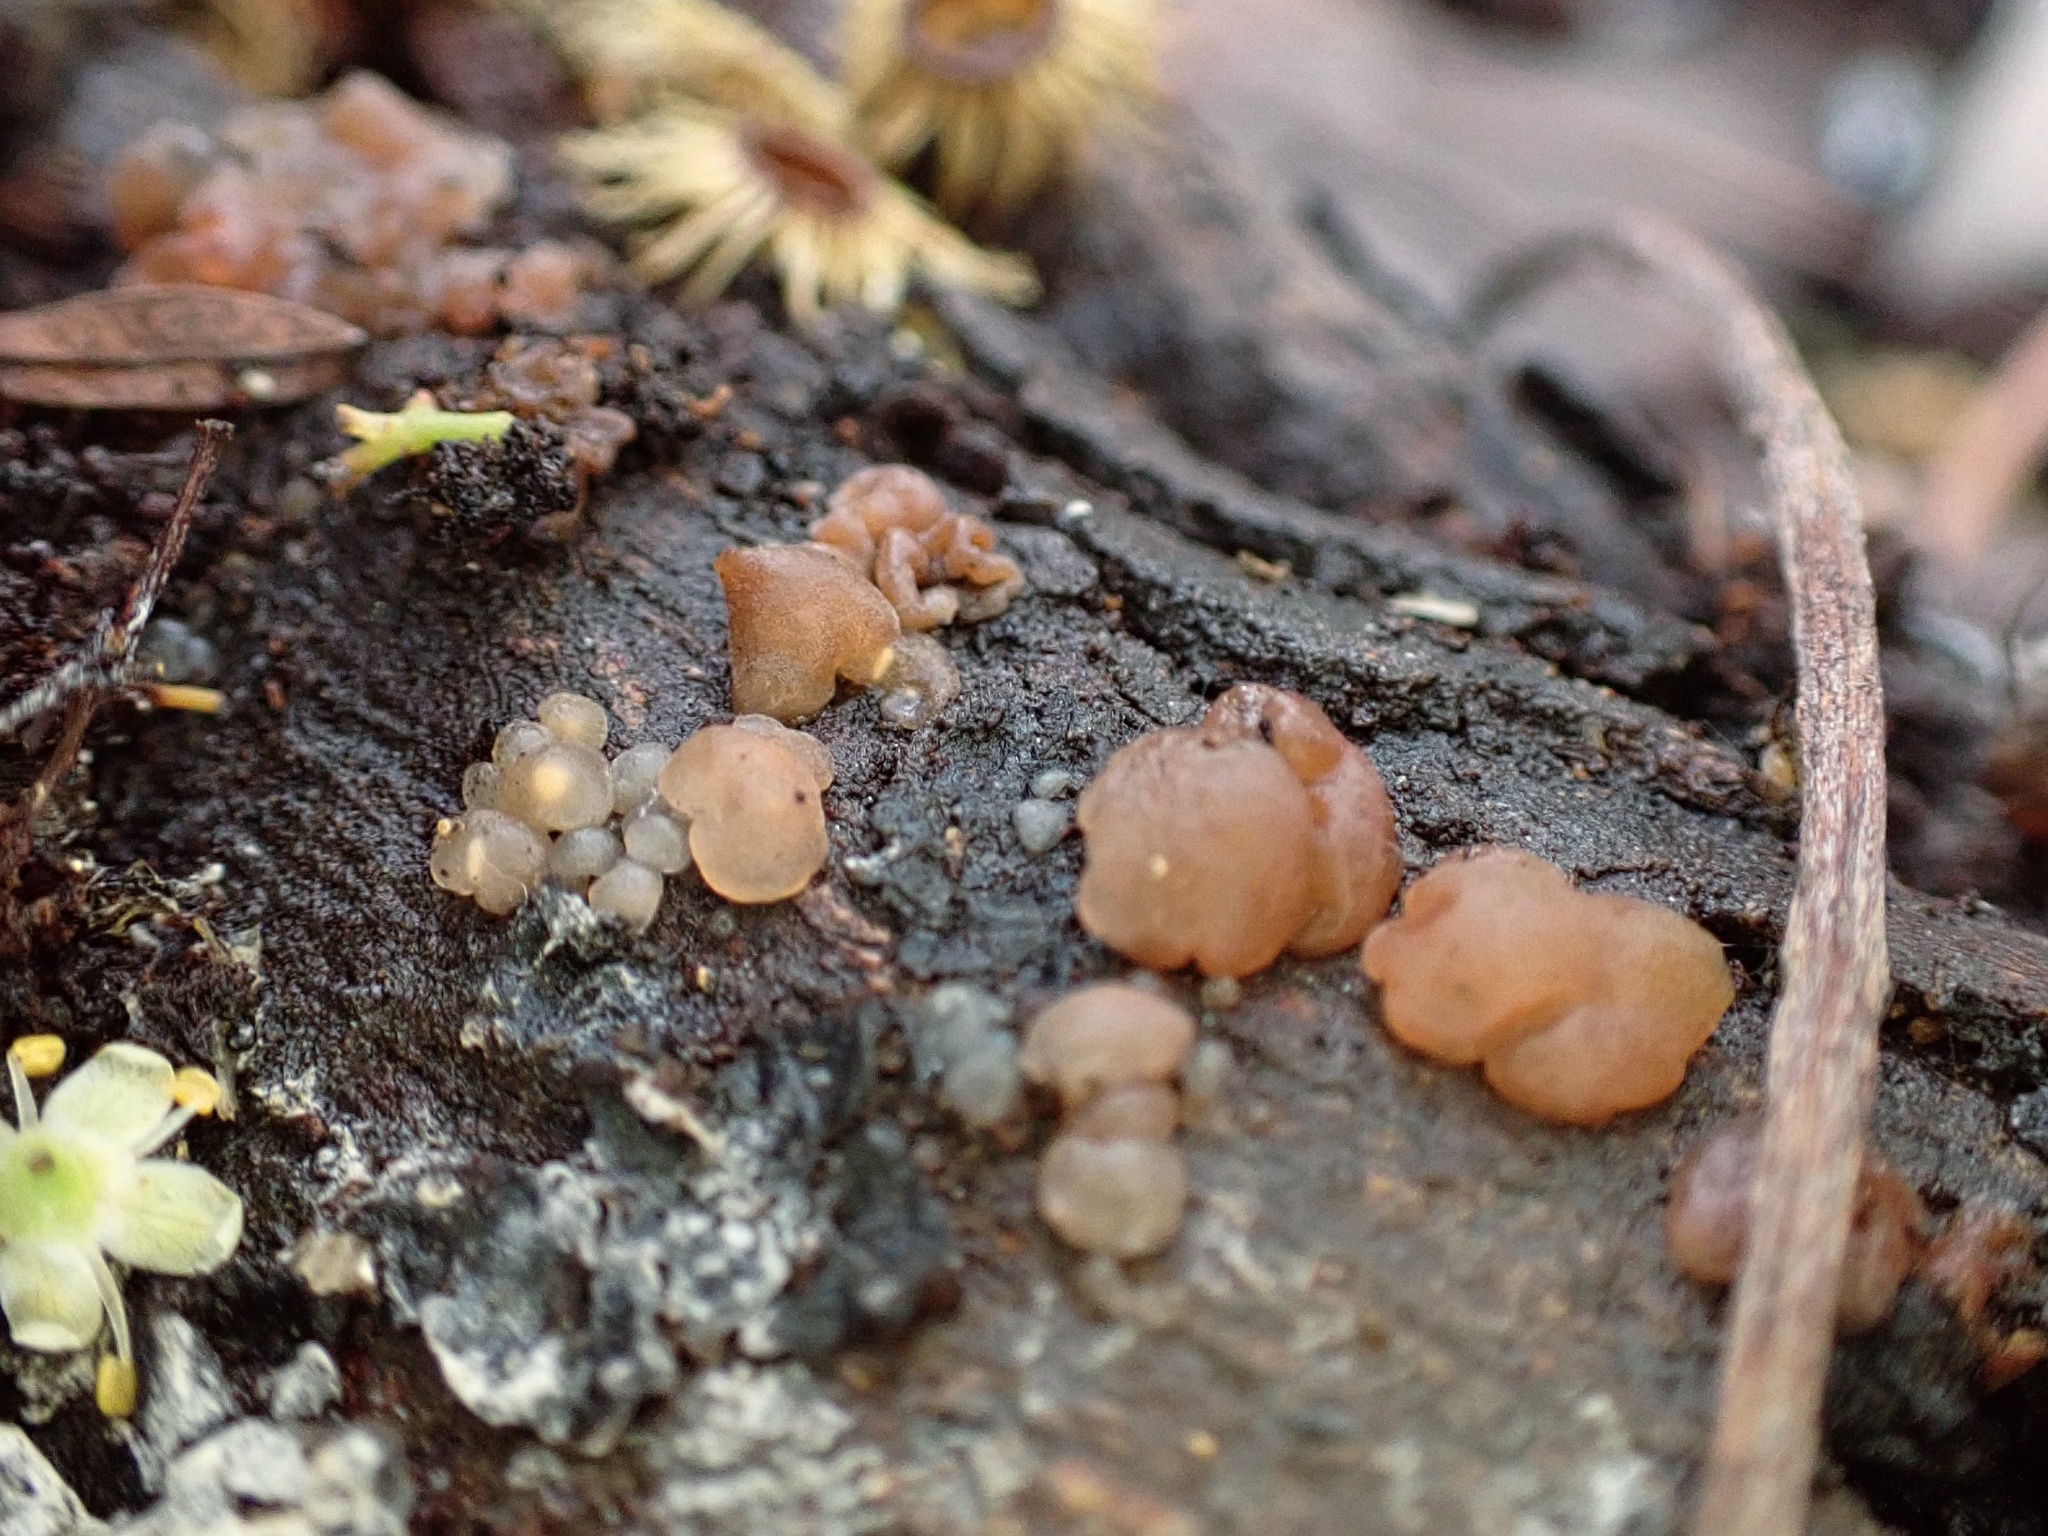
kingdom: Fungi
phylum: Basidiomycota
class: Agaricomycetes
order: Auriculariales
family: Hyaloriaceae
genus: Myxarium
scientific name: Myxarium nucleatum
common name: Crystal brain fungus
